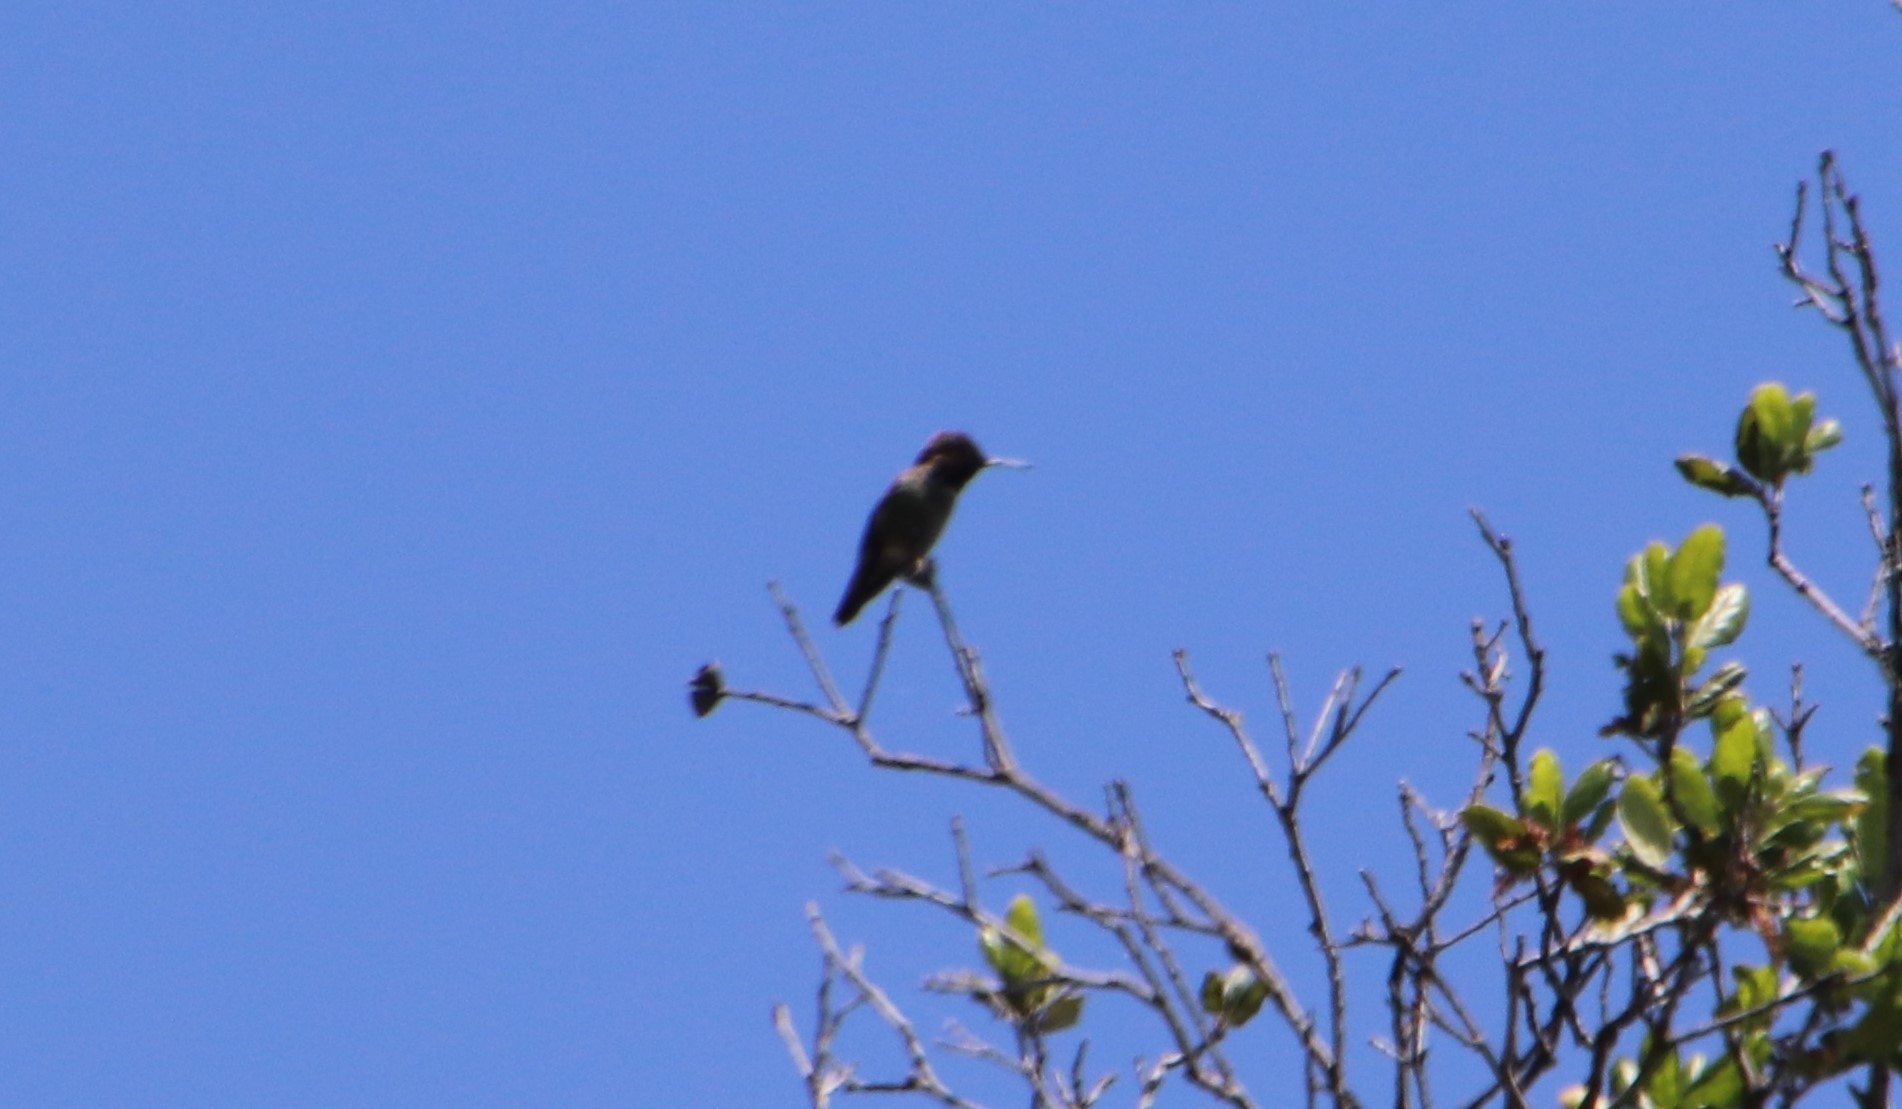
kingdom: Animalia
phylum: Chordata
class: Aves
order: Apodiformes
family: Trochilidae
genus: Calypte
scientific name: Calypte anna
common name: Anna's hummingbird
